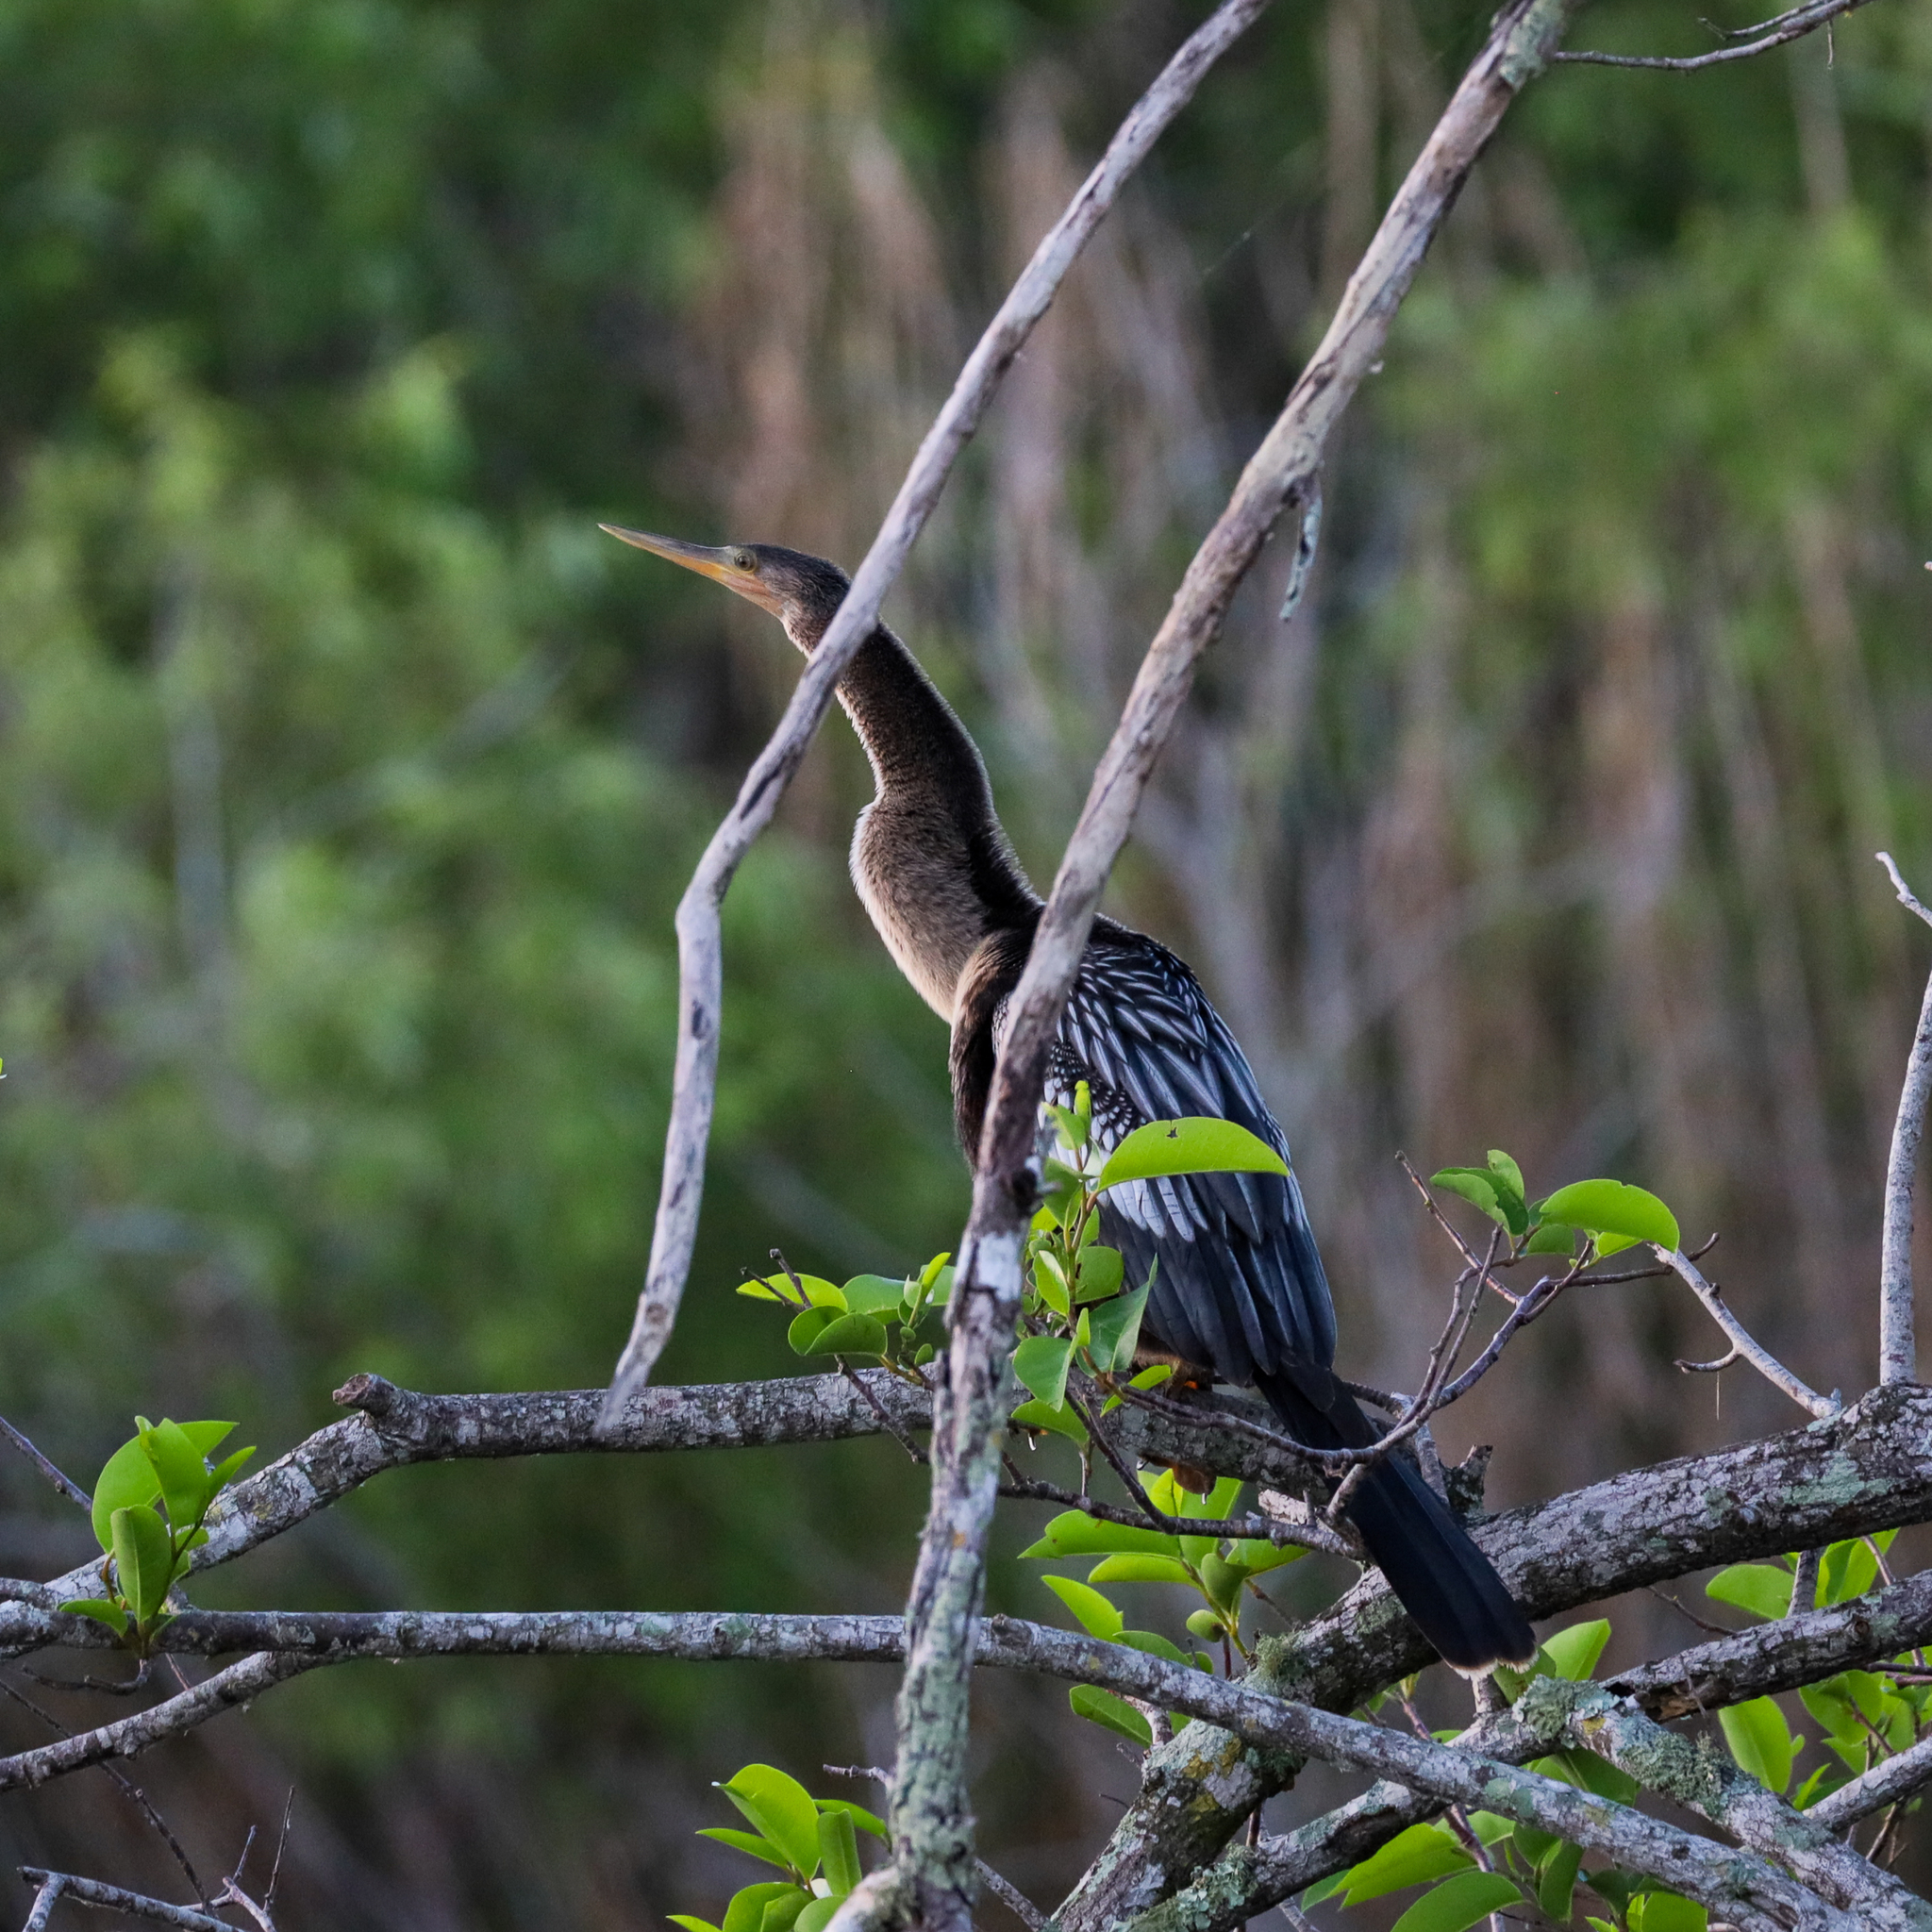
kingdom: Animalia
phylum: Chordata
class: Aves
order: Suliformes
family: Anhingidae
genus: Anhinga
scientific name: Anhinga anhinga
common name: Anhinga
